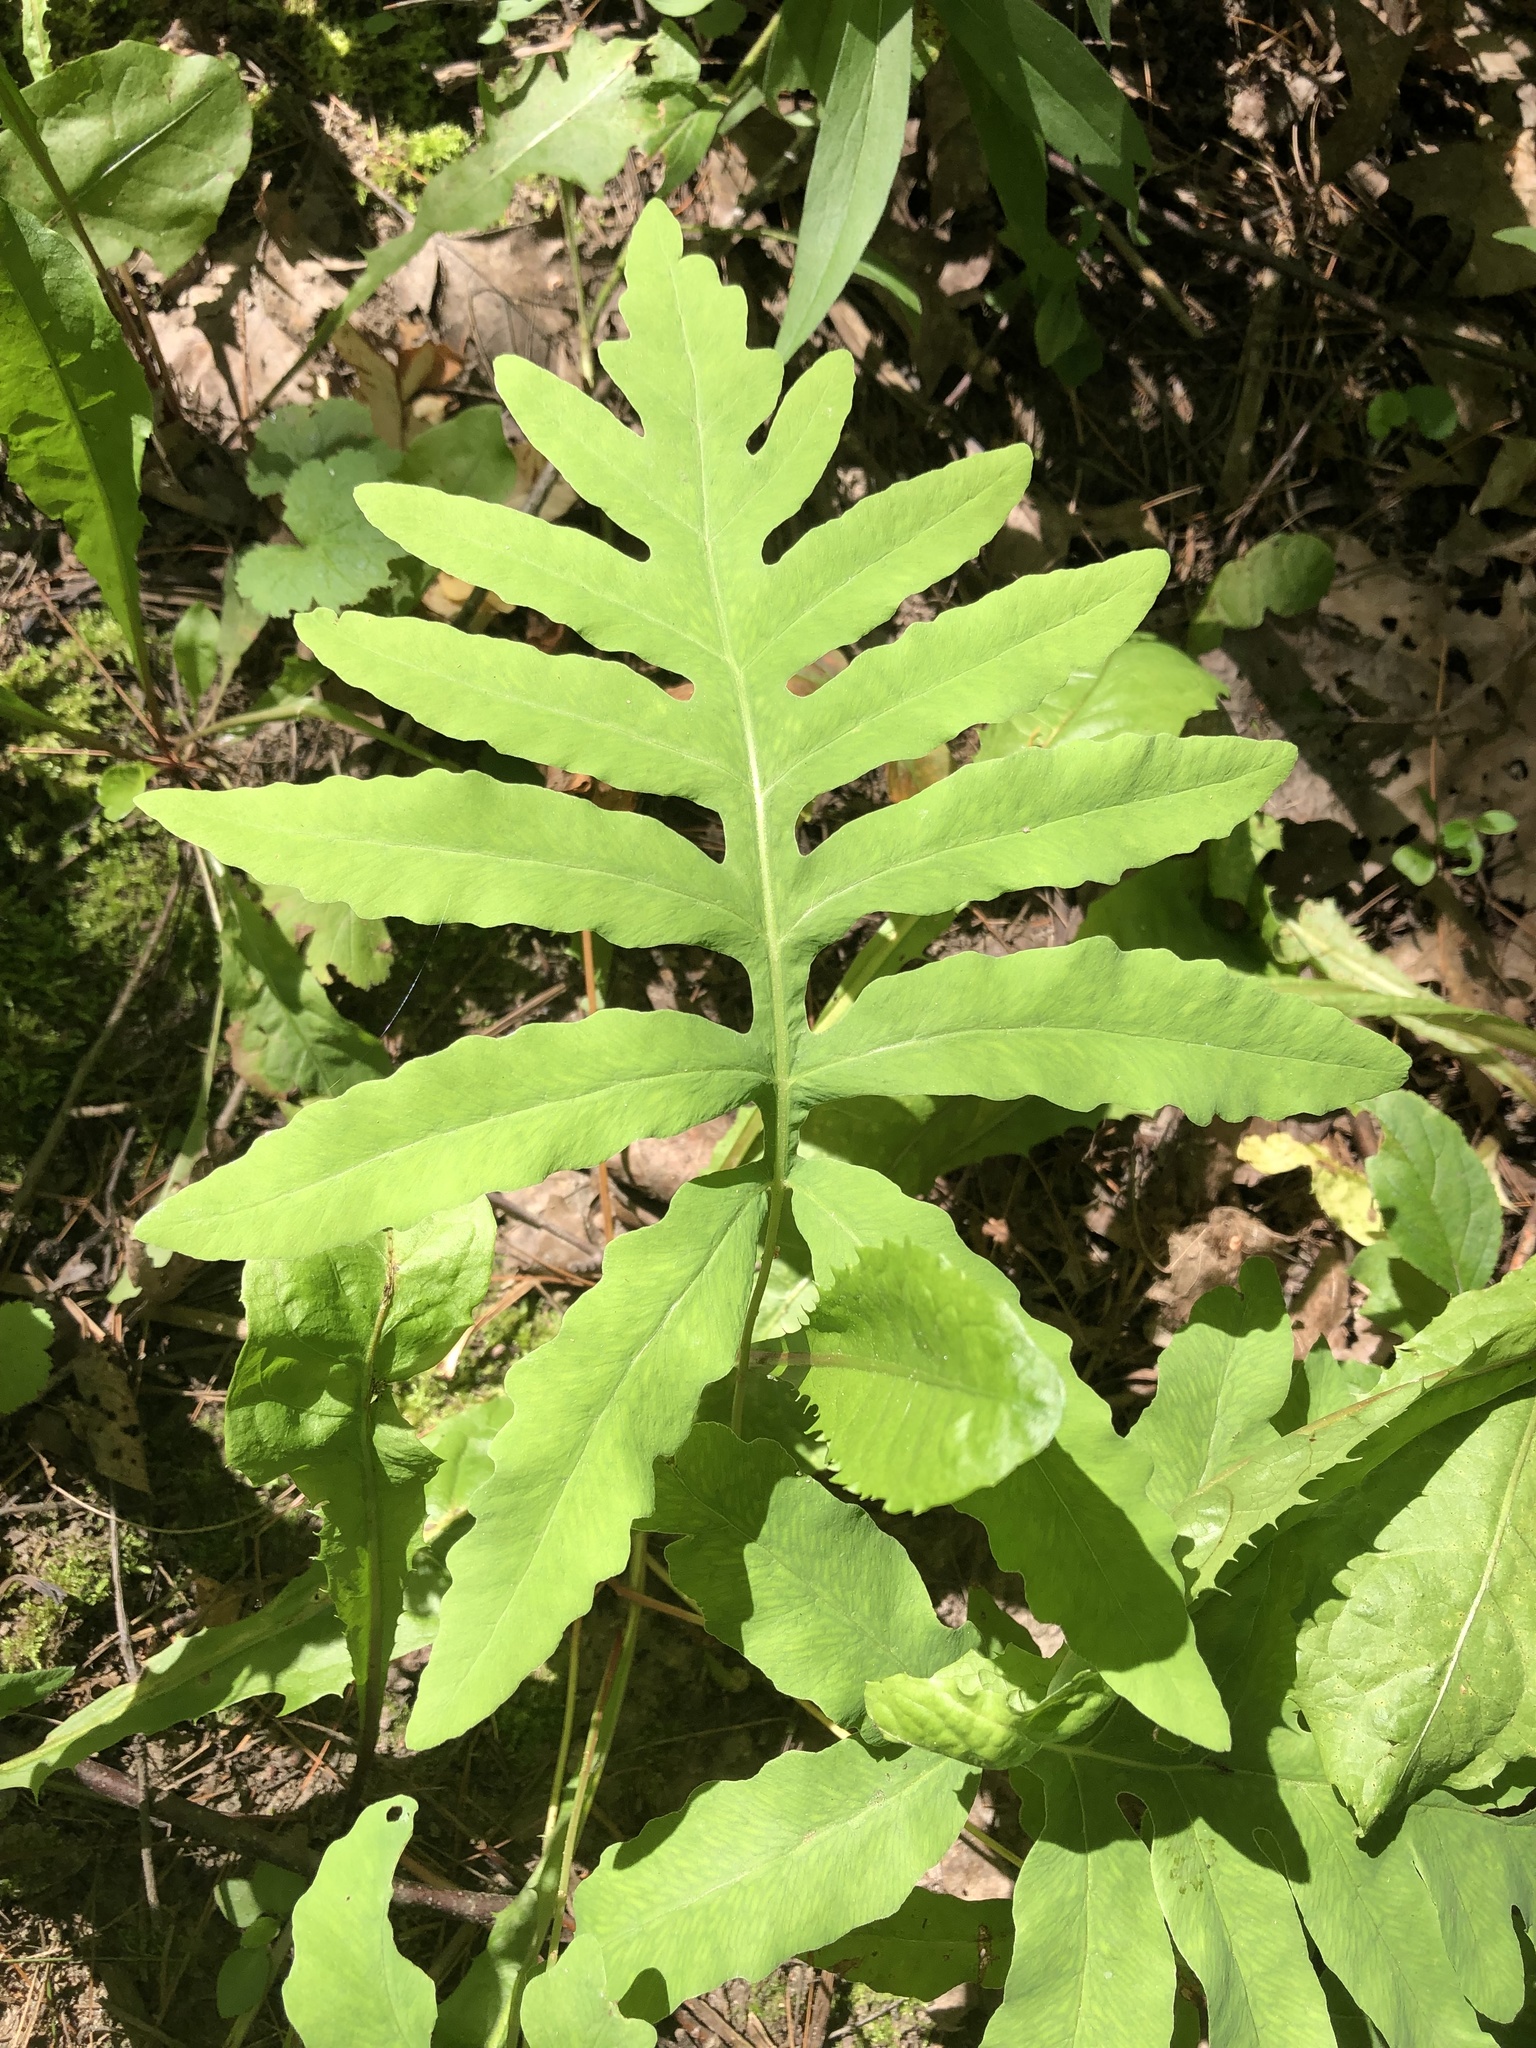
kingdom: Plantae
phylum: Tracheophyta
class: Polypodiopsida
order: Polypodiales
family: Onocleaceae
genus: Onoclea
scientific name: Onoclea sensibilis
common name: Sensitive fern
